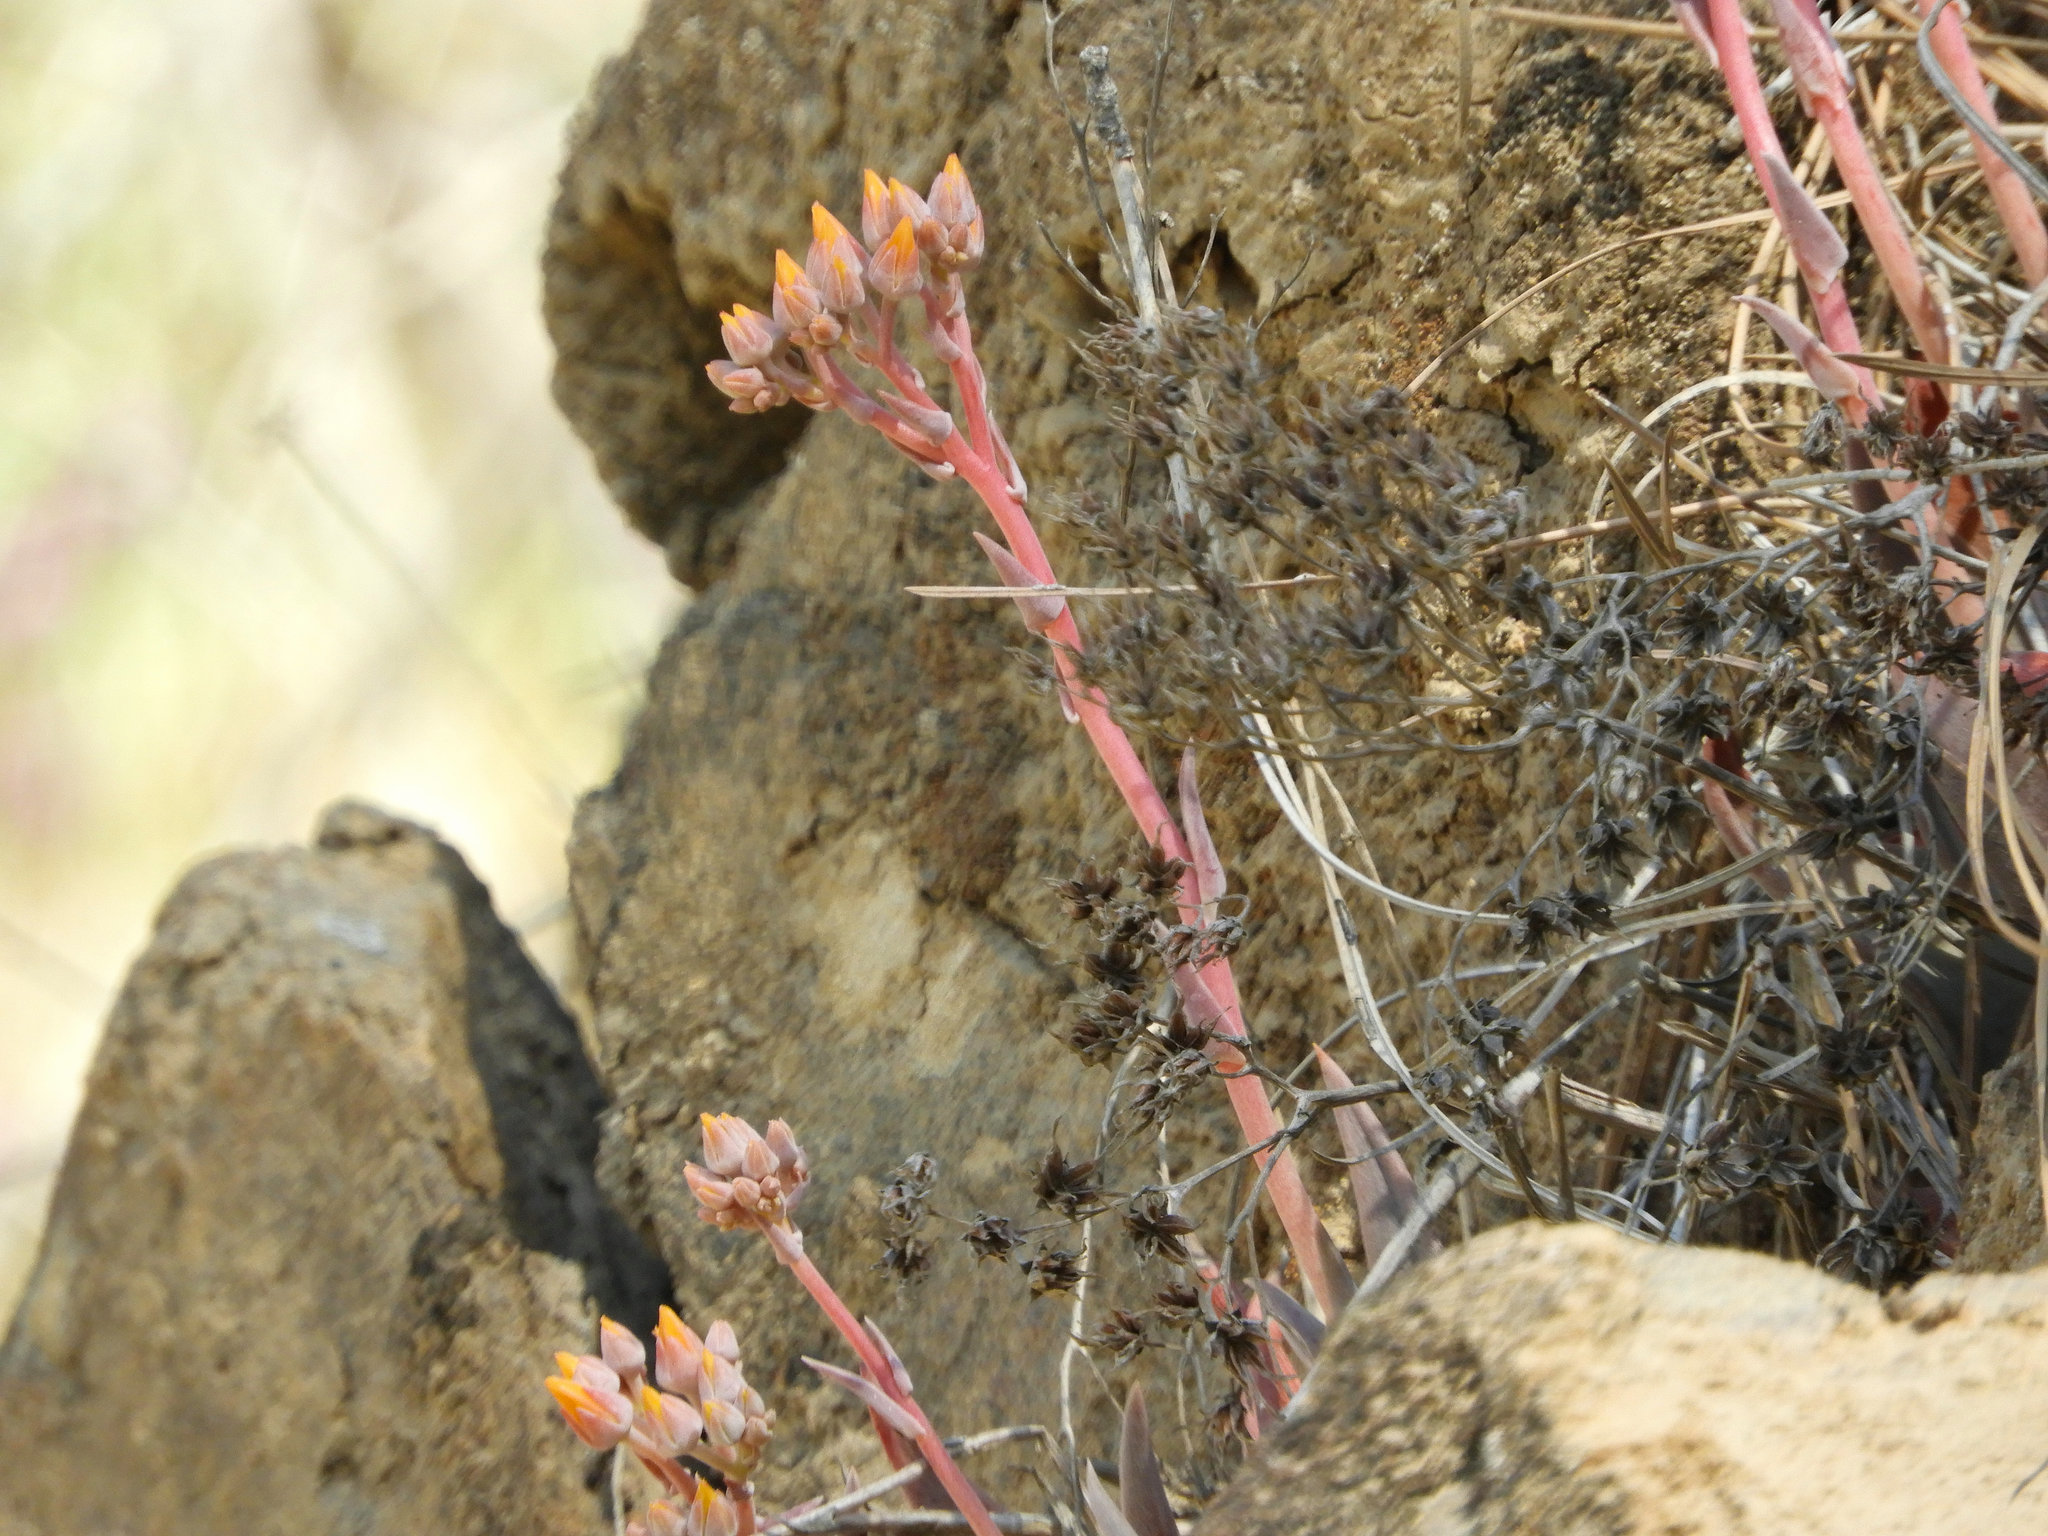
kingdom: Plantae
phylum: Tracheophyta
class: Magnoliopsida
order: Saxifragales
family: Crassulaceae
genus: Dudleya
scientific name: Dudleya cymosa
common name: Canyon dudleya
